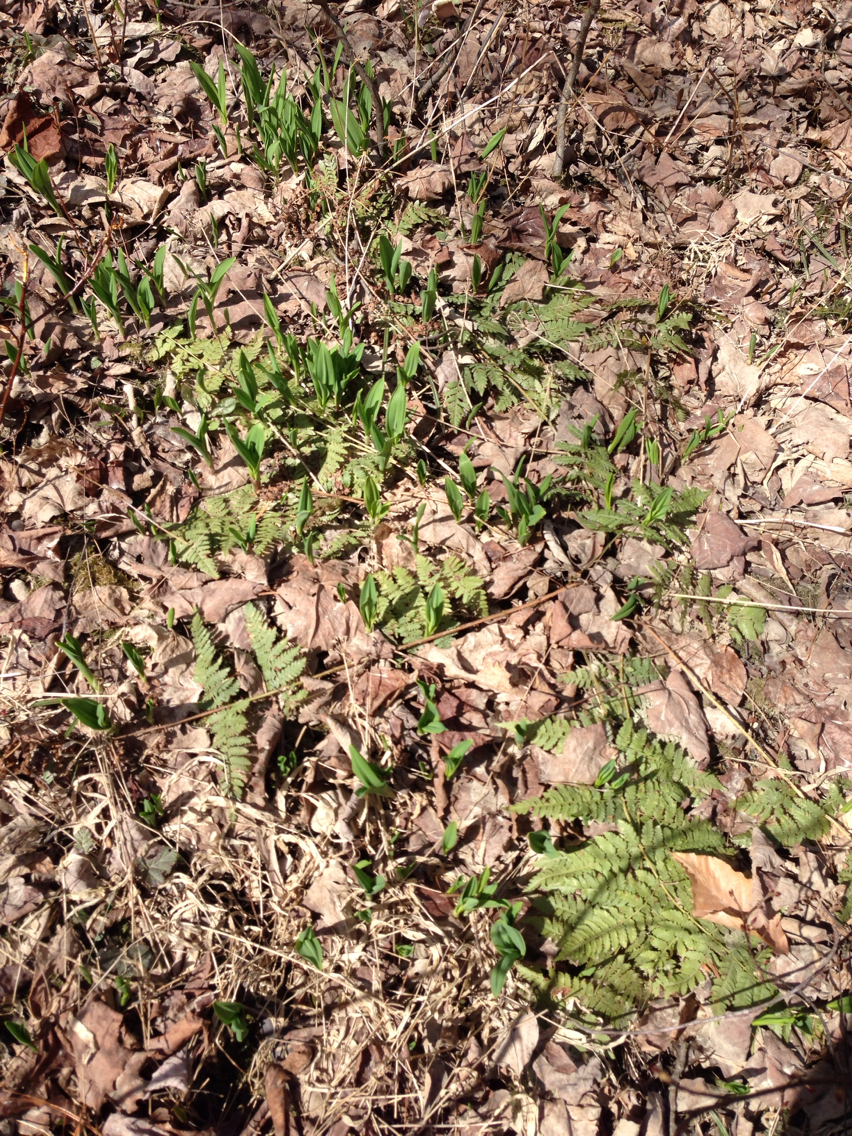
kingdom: Plantae
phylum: Tracheophyta
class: Liliopsida
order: Asparagales
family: Amaryllidaceae
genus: Allium
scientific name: Allium tricoccum
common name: Ramp
